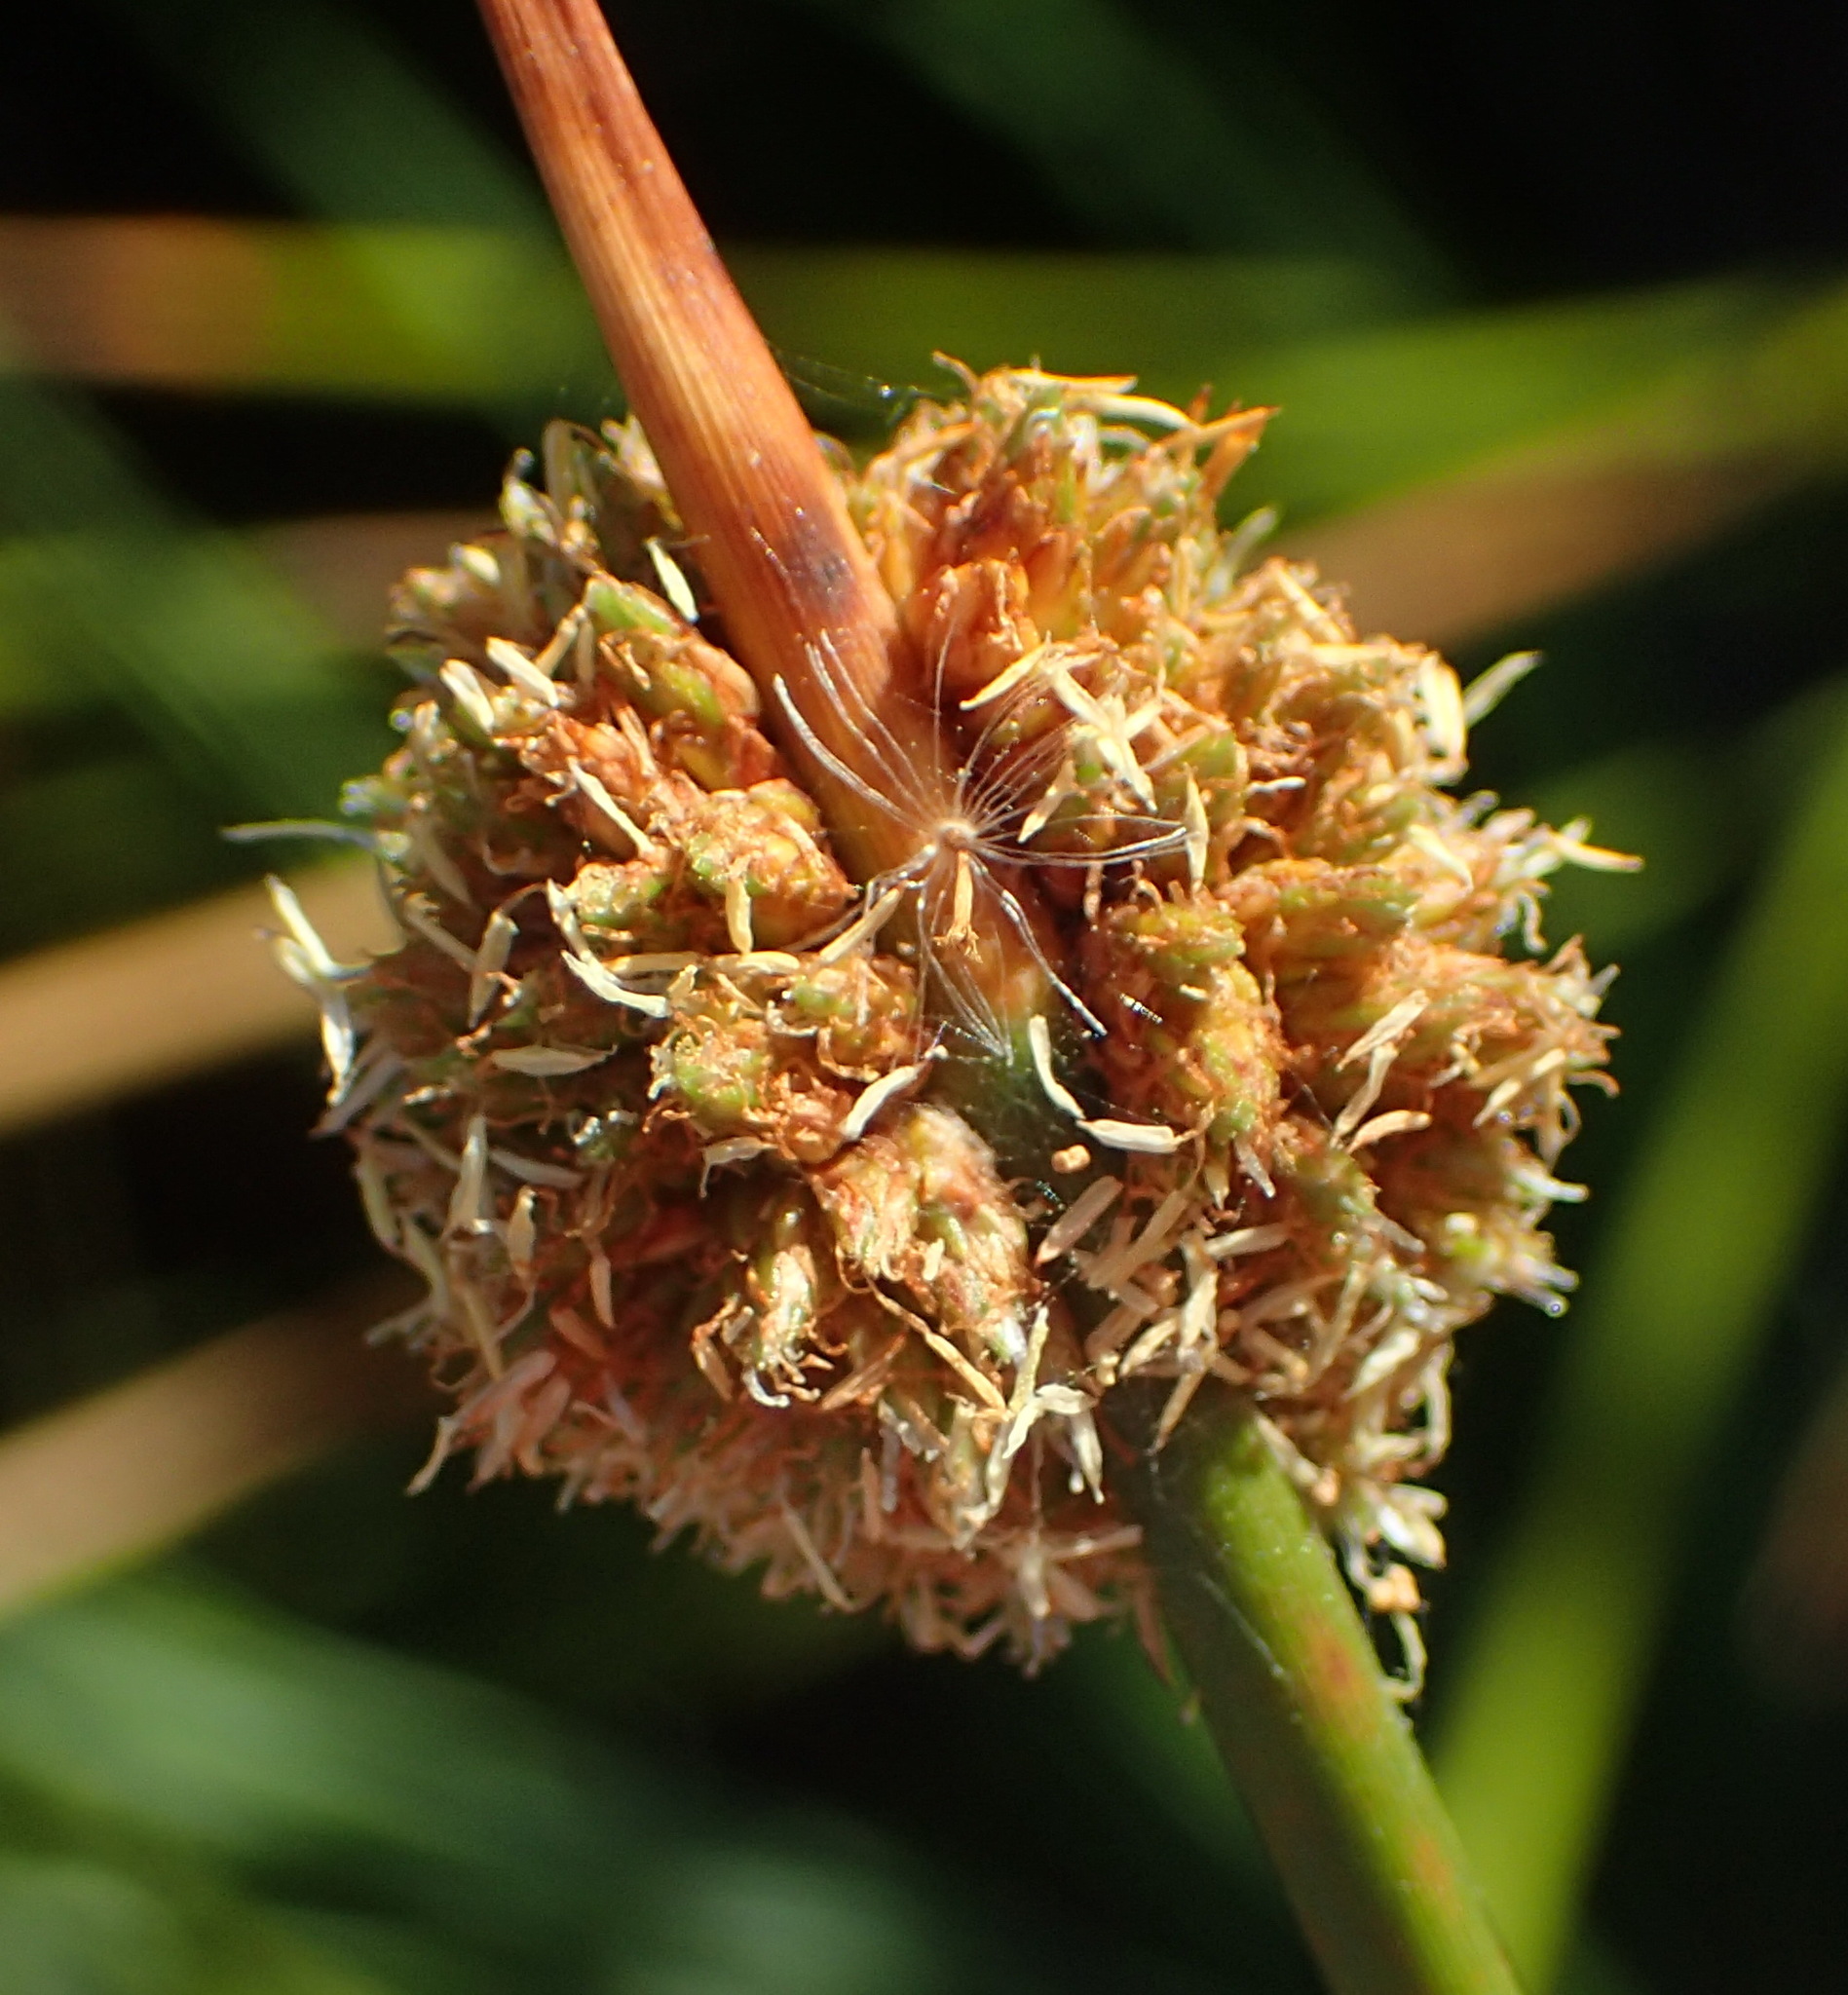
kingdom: Plantae
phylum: Tracheophyta
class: Liliopsida
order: Poales
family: Cyperaceae
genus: Ficinia
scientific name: Ficinia nodosa
